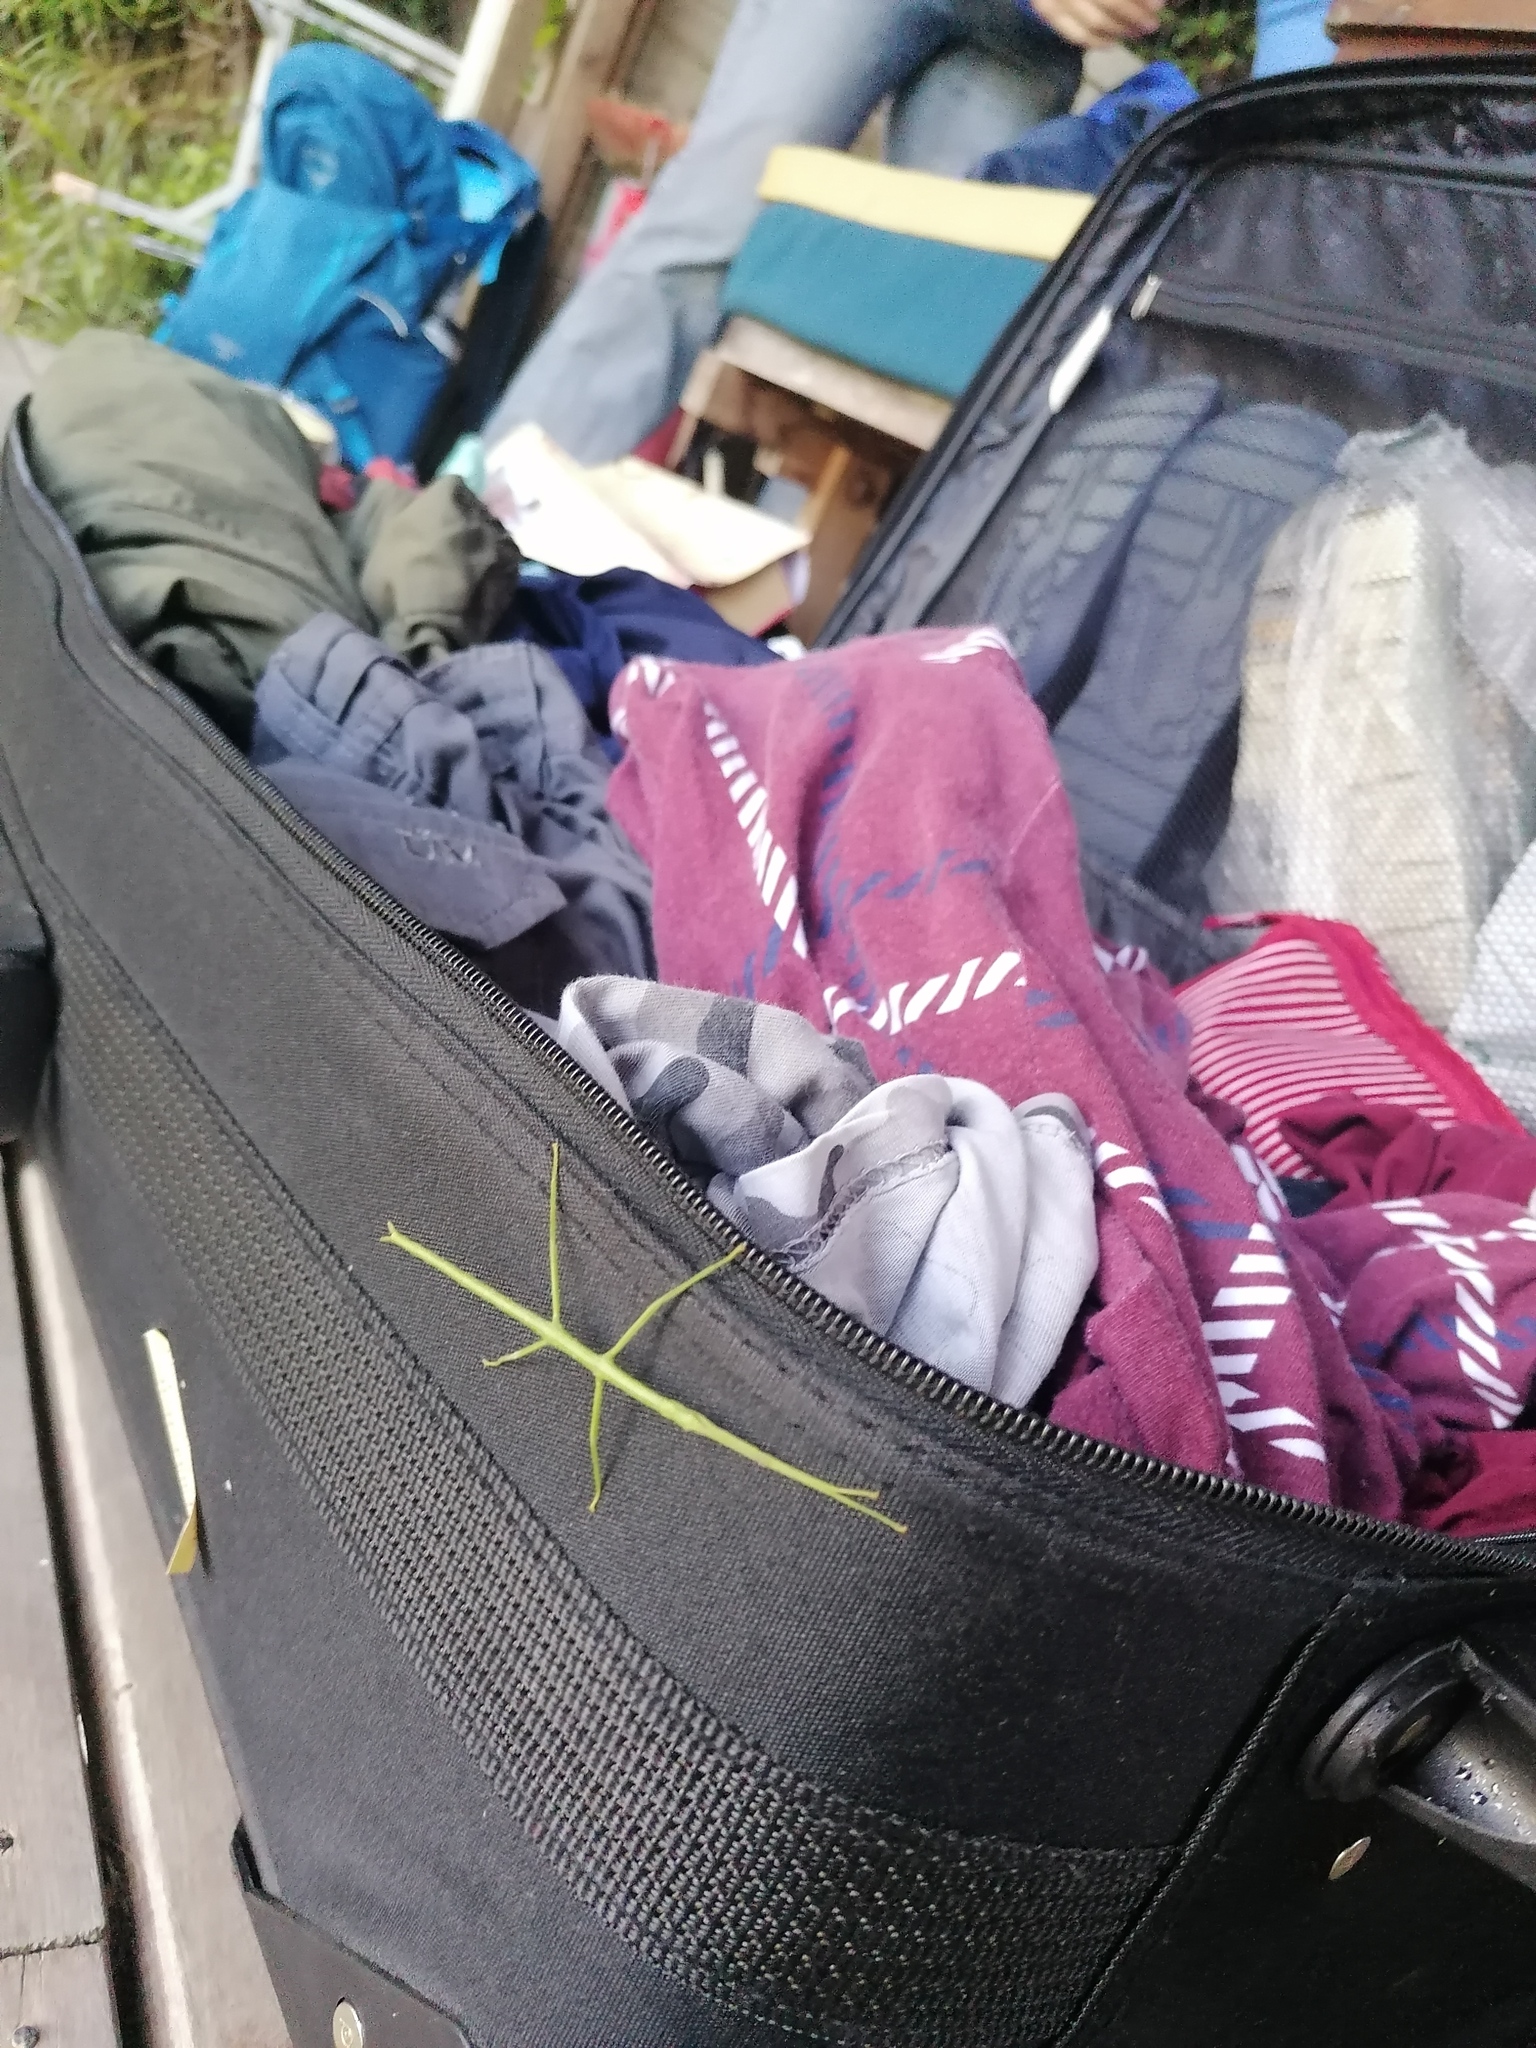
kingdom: Animalia
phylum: Arthropoda
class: Insecta
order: Phasmida
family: Phasmatidae
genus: Clitarchus
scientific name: Clitarchus hookeri
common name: Smooth stick insect
